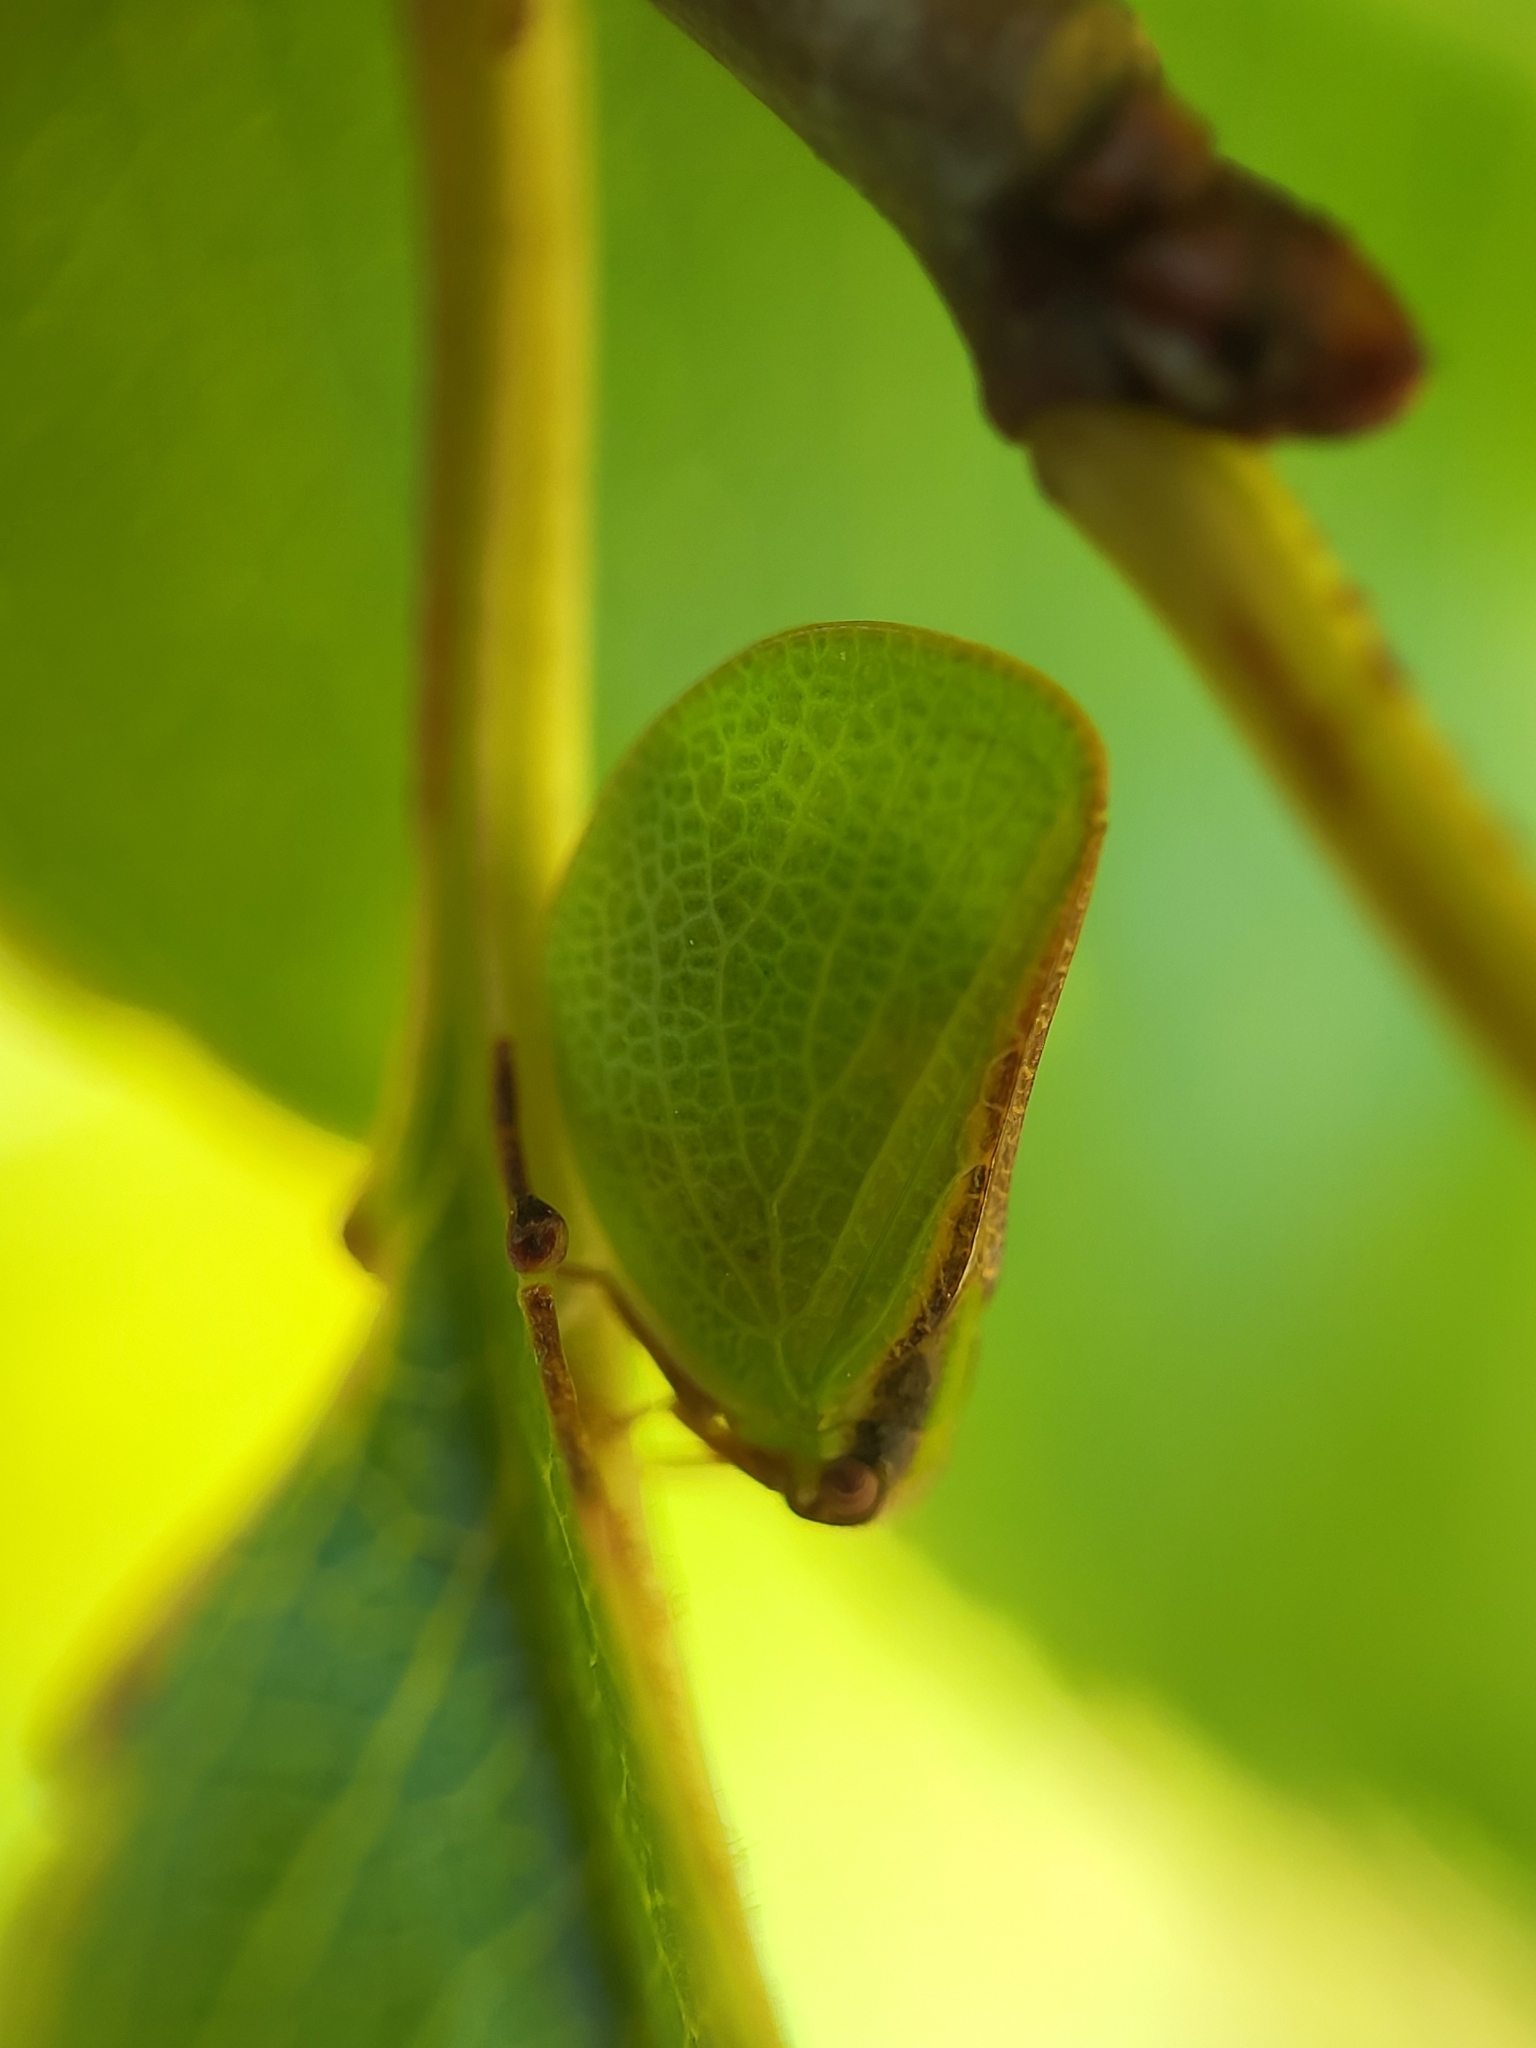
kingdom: Animalia
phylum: Arthropoda
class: Insecta
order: Hemiptera
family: Acanaloniidae
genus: Acanalonia
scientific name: Acanalonia bivittata
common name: Two-striped planthopper
